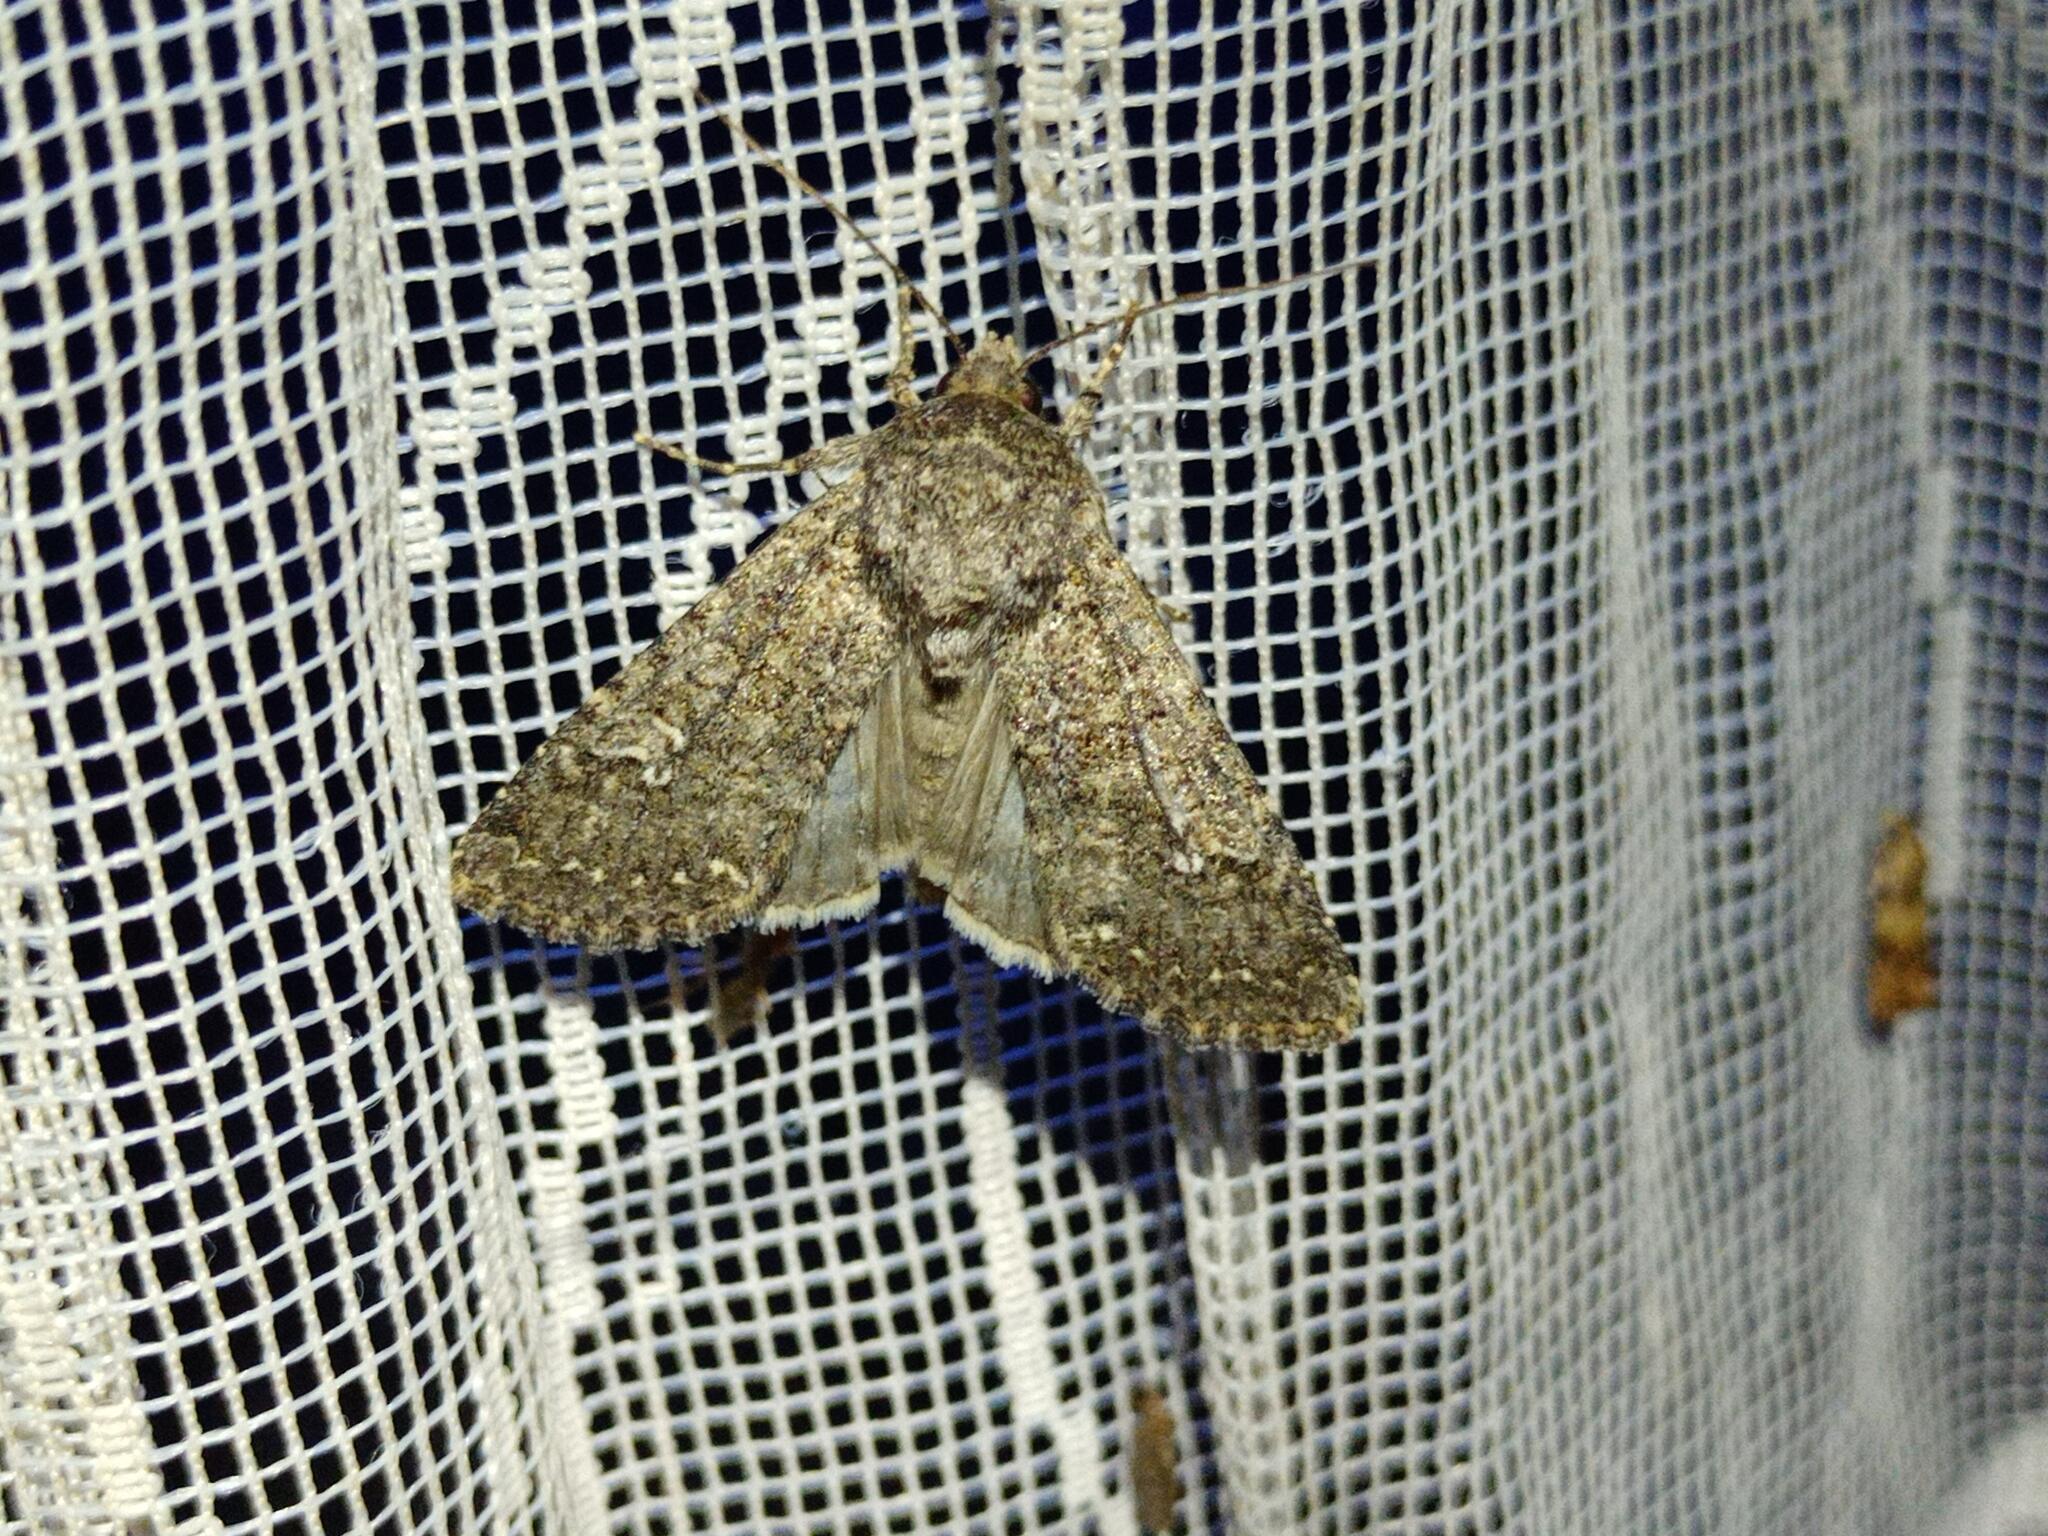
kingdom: Animalia
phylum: Arthropoda
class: Insecta
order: Lepidoptera
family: Noctuidae
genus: Sideridis
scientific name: Sideridis turbida
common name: White colon
